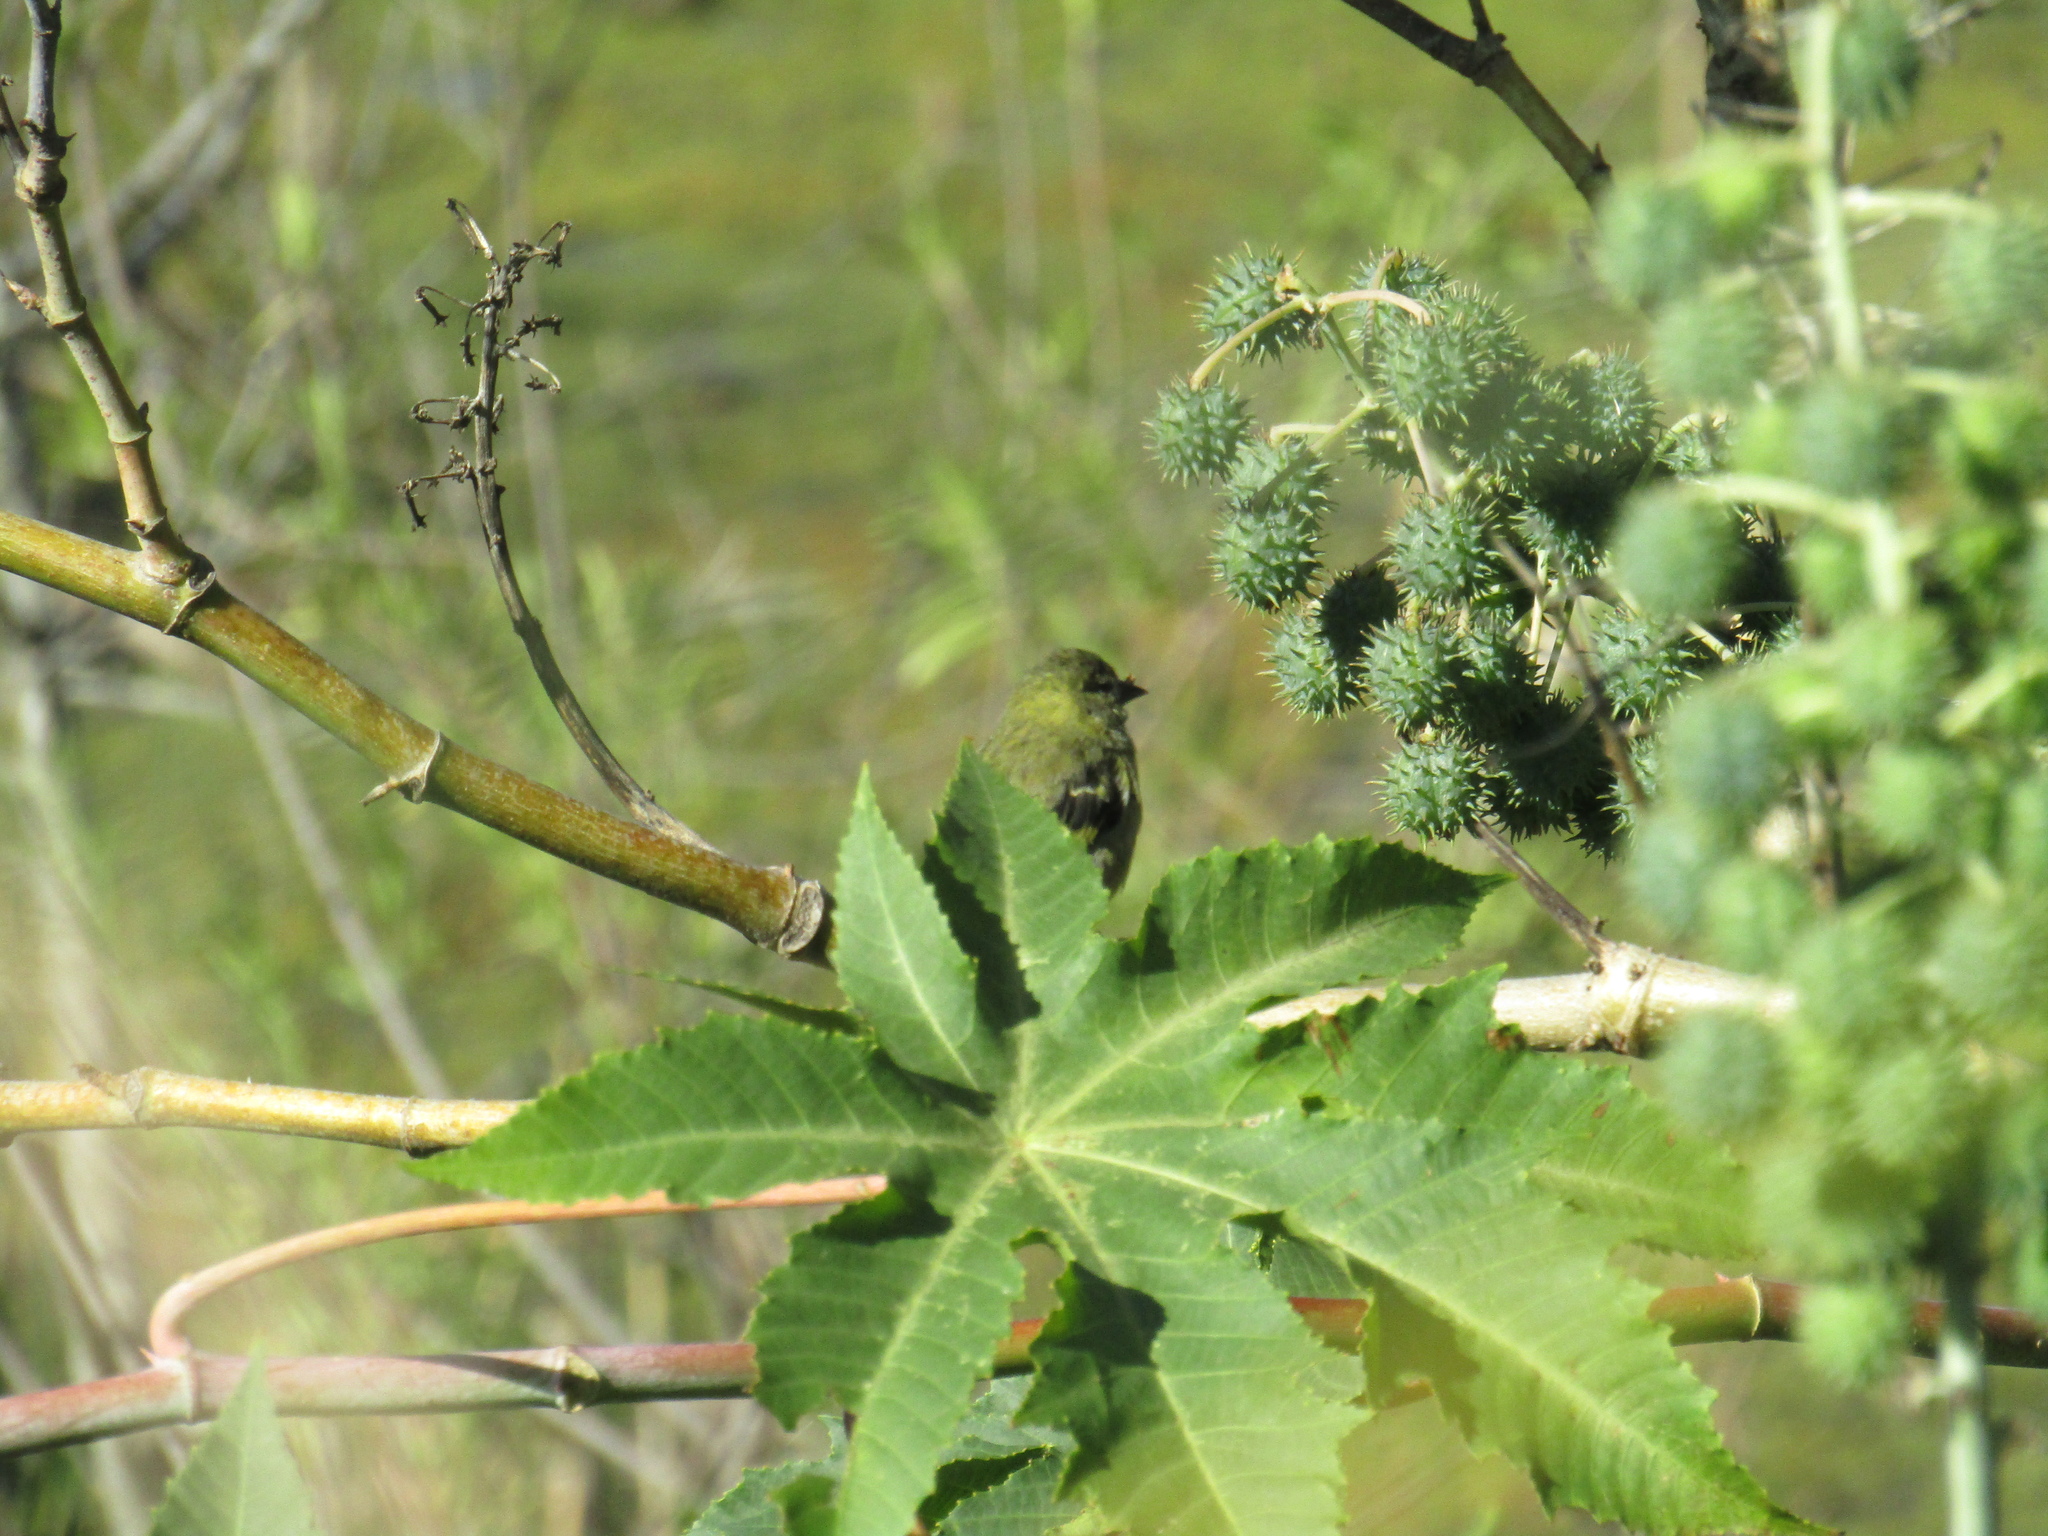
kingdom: Animalia
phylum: Chordata
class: Aves
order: Passeriformes
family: Fringillidae
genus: Spinus
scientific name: Spinus magellanicus
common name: Hooded siskin
